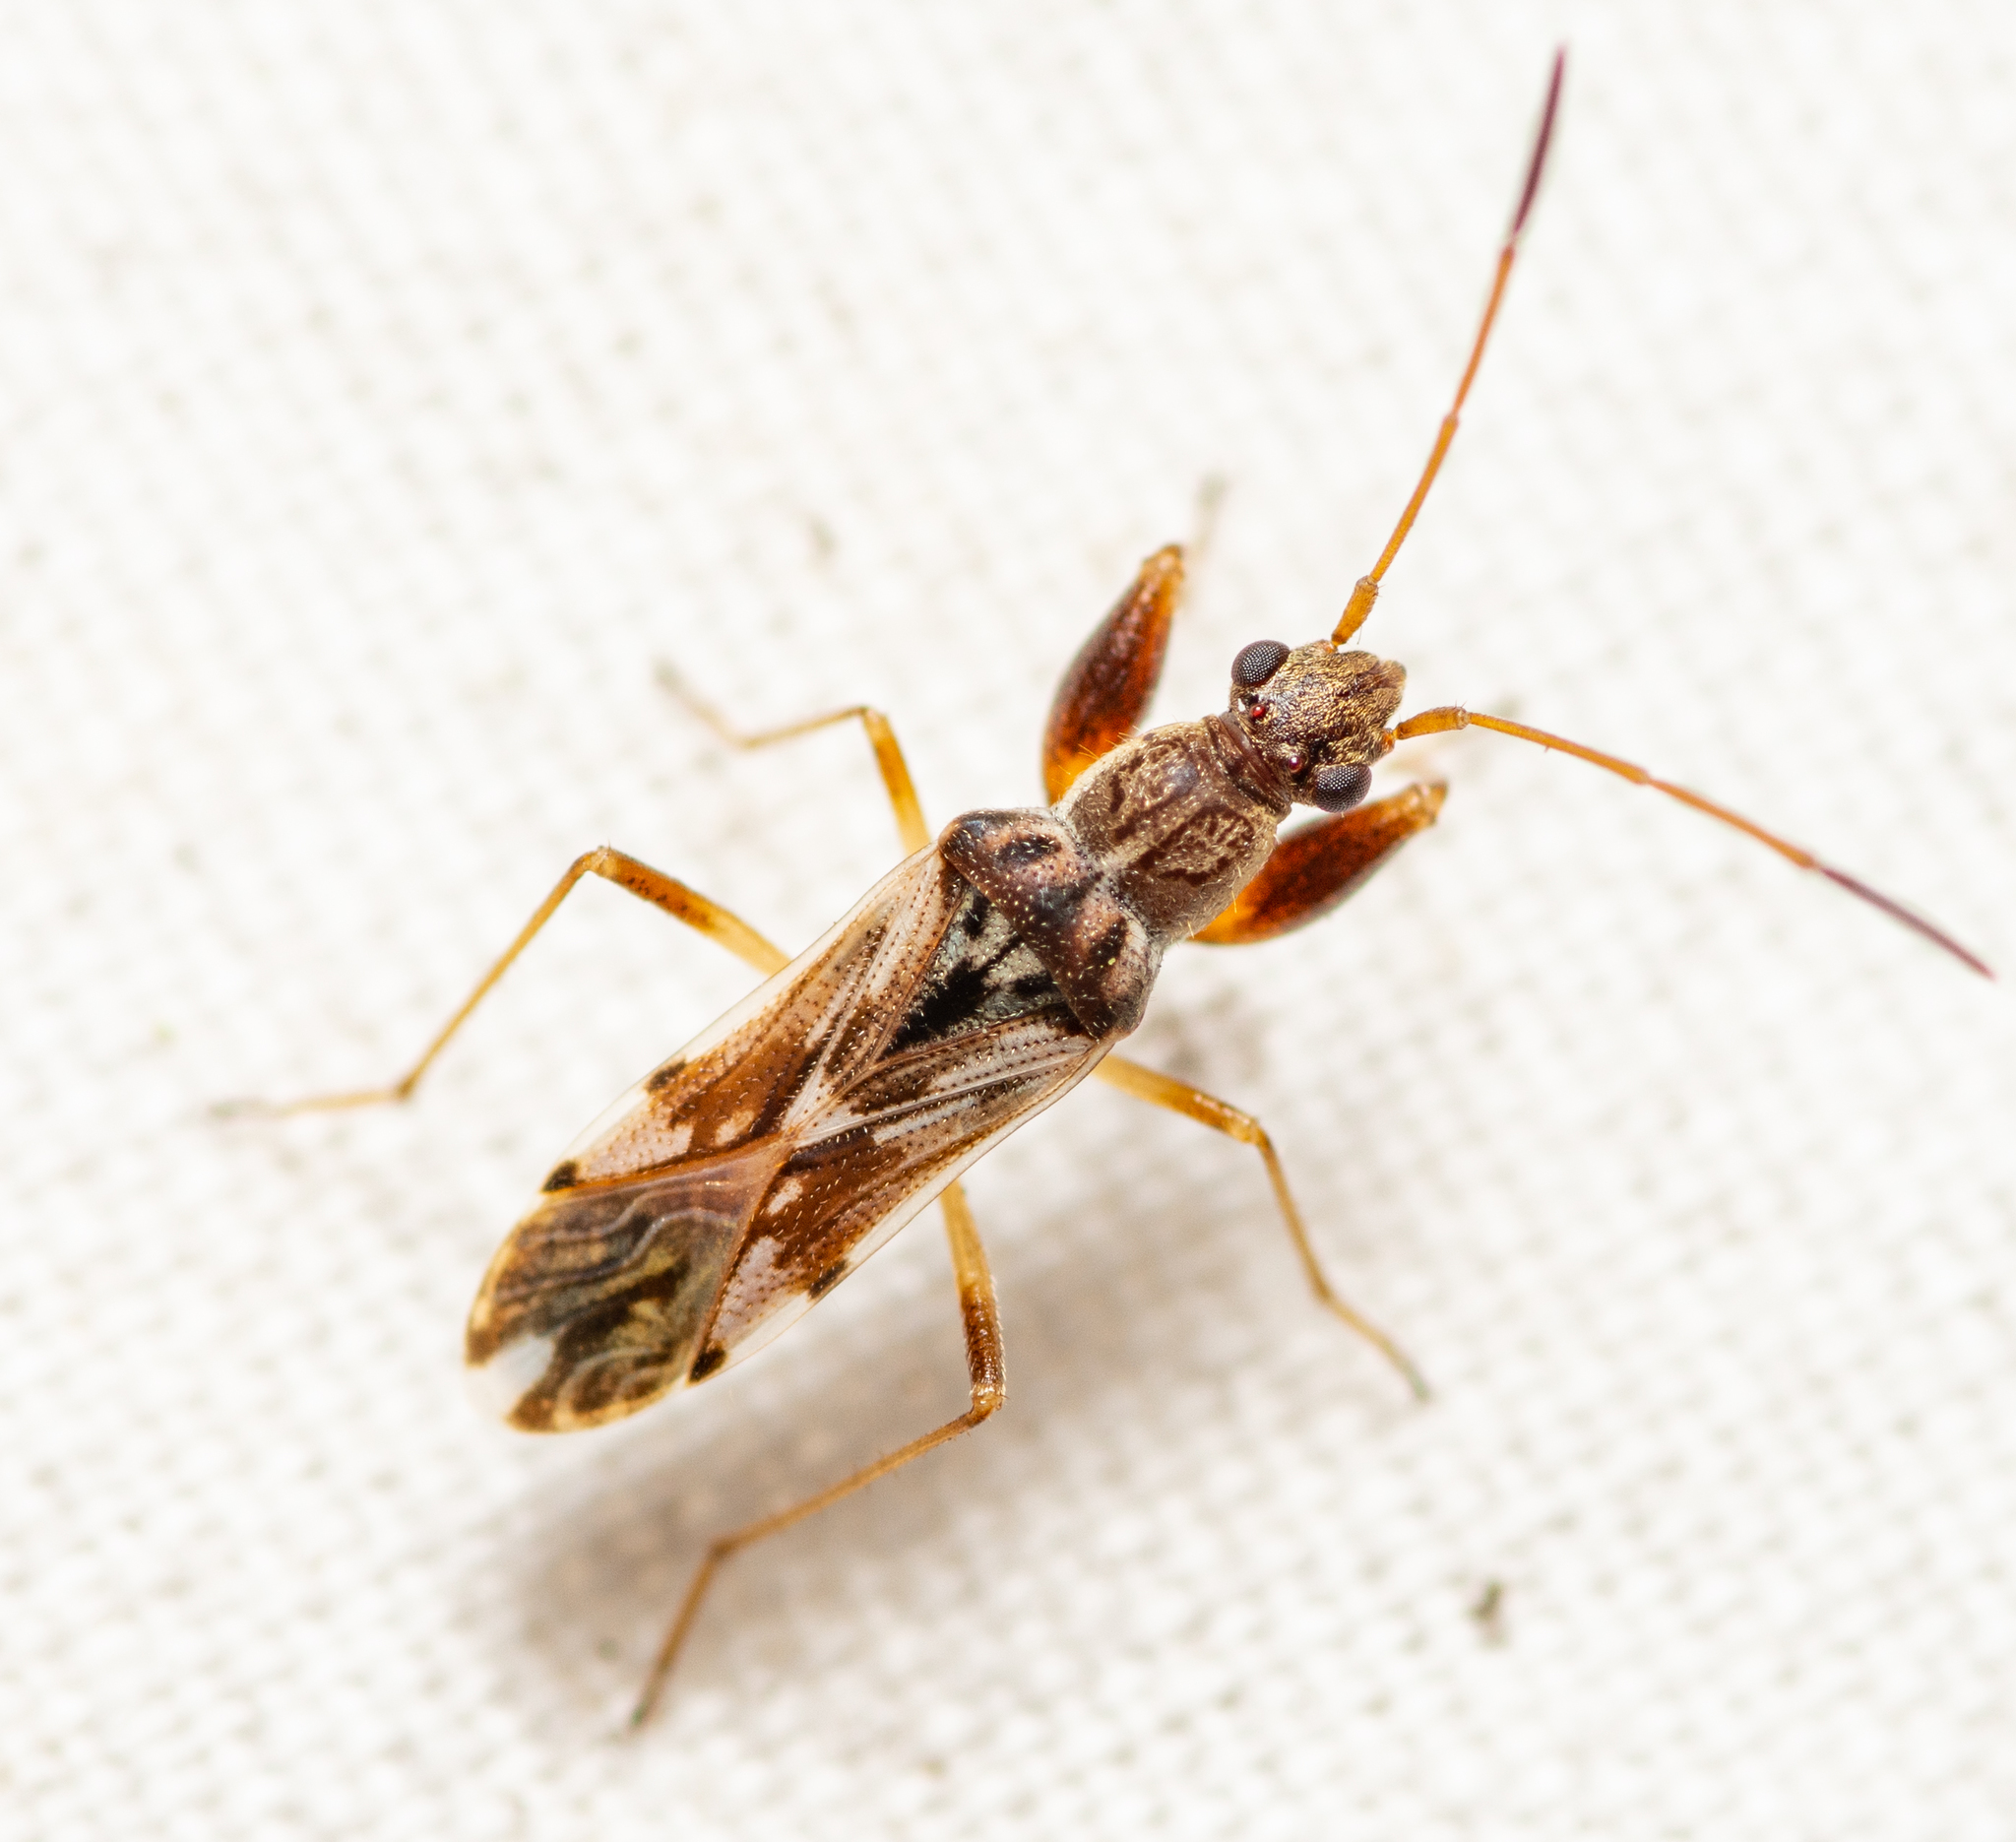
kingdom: Animalia
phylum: Arthropoda
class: Insecta
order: Hemiptera
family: Rhyparochromidae
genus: Neopamera
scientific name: Neopamera bilobata
